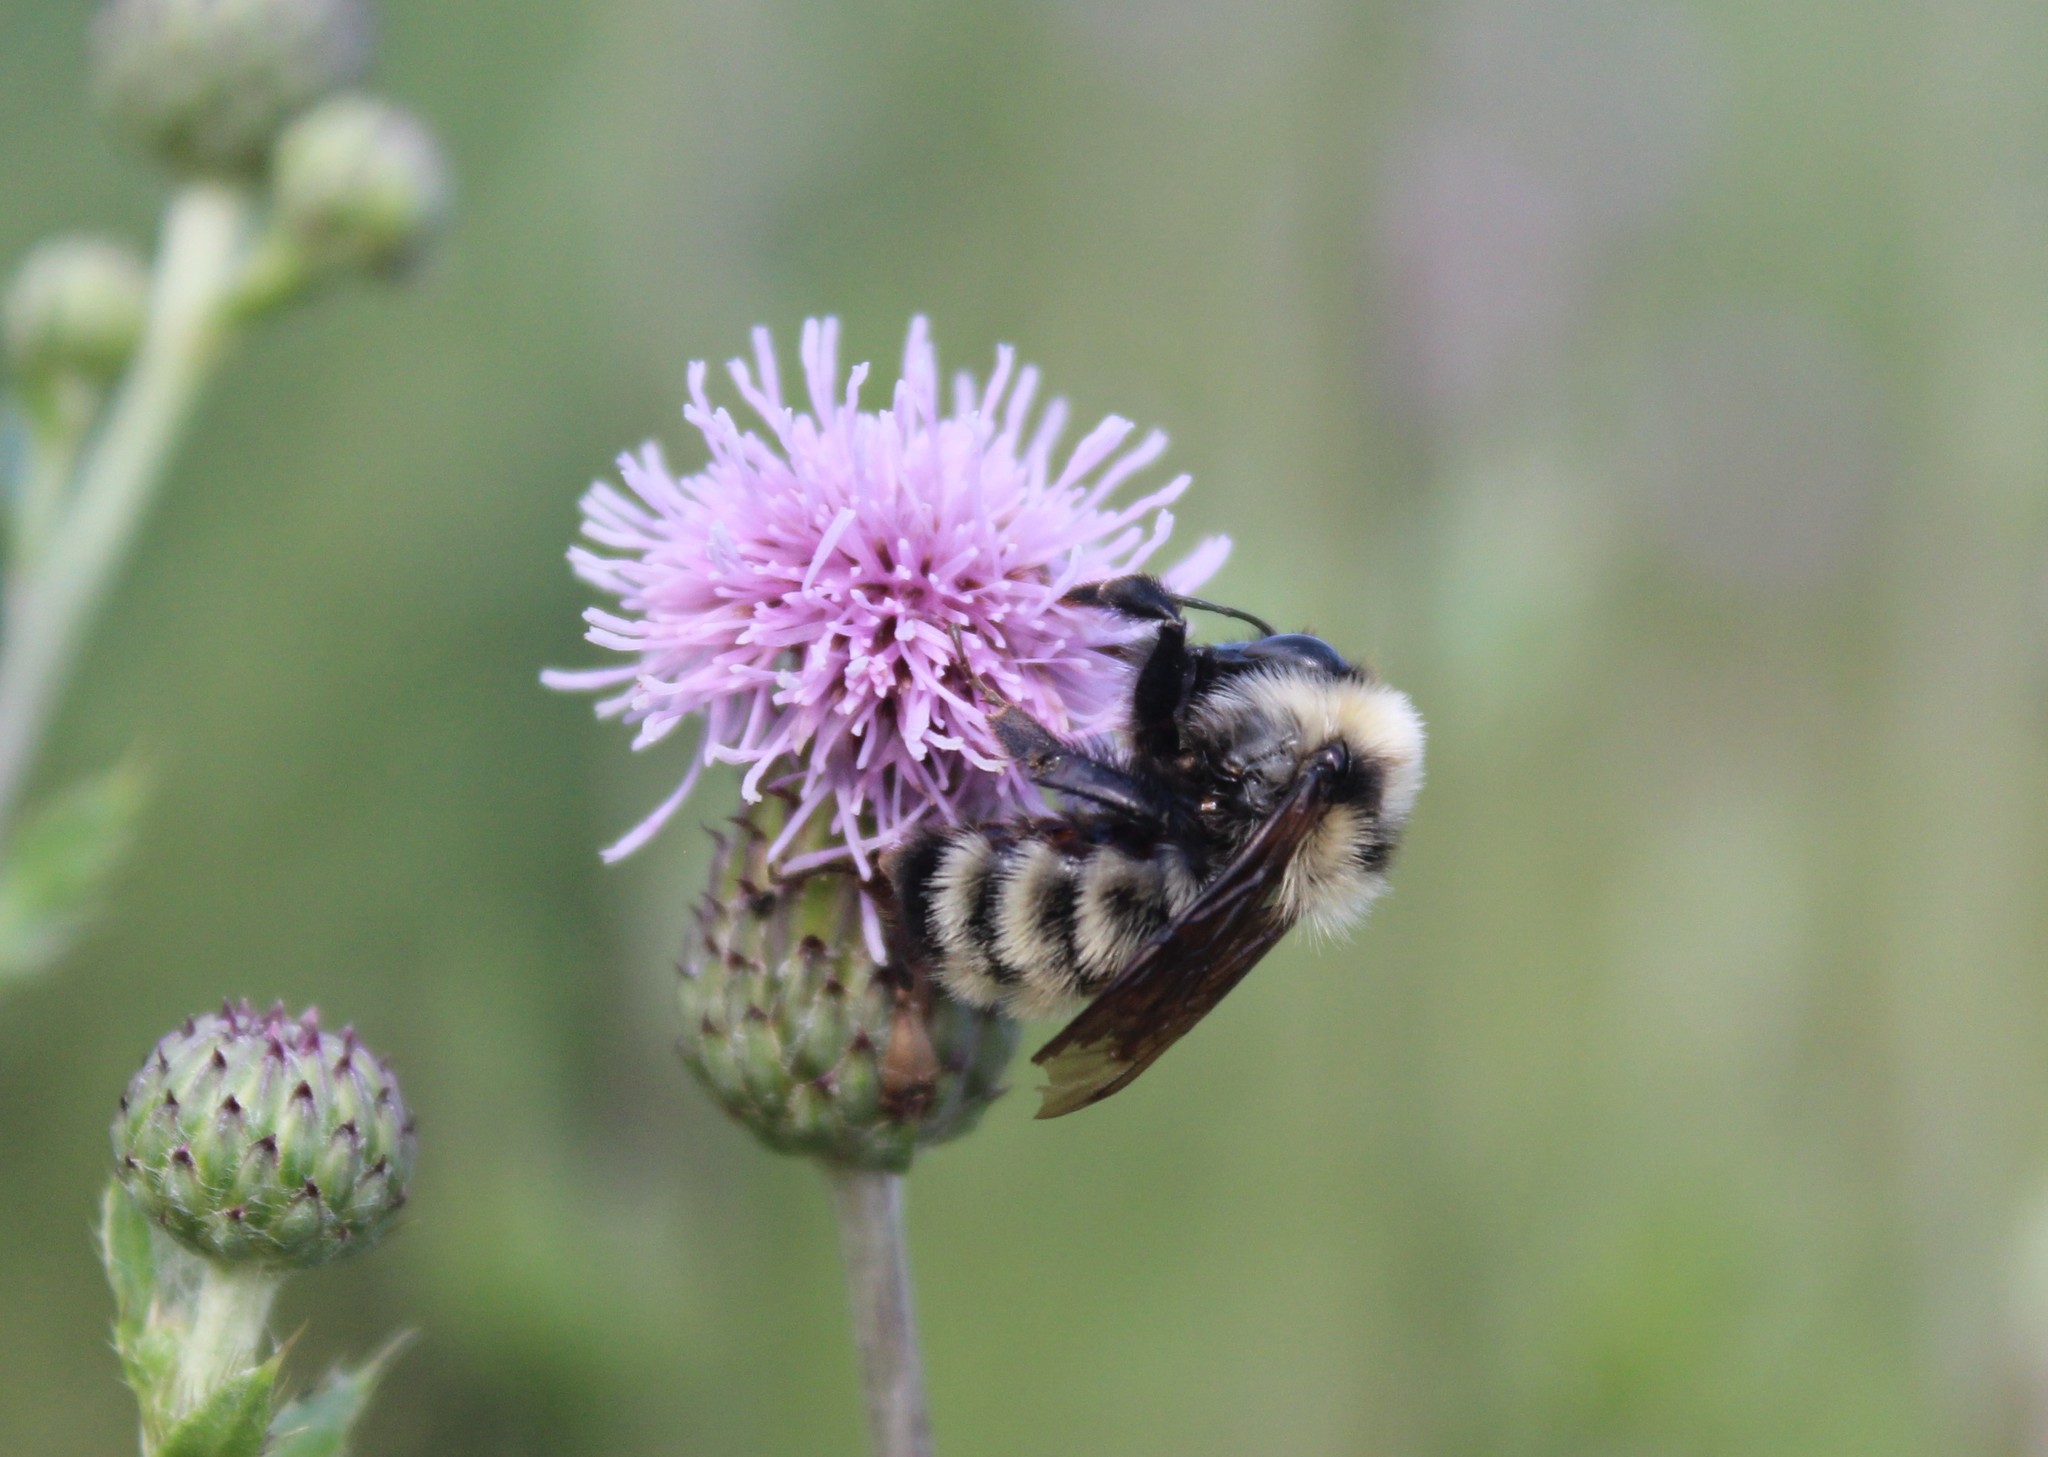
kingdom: Animalia
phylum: Arthropoda
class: Insecta
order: Hymenoptera
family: Apidae
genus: Bombus
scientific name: Bombus fervidus
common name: Yellow bumble bee
